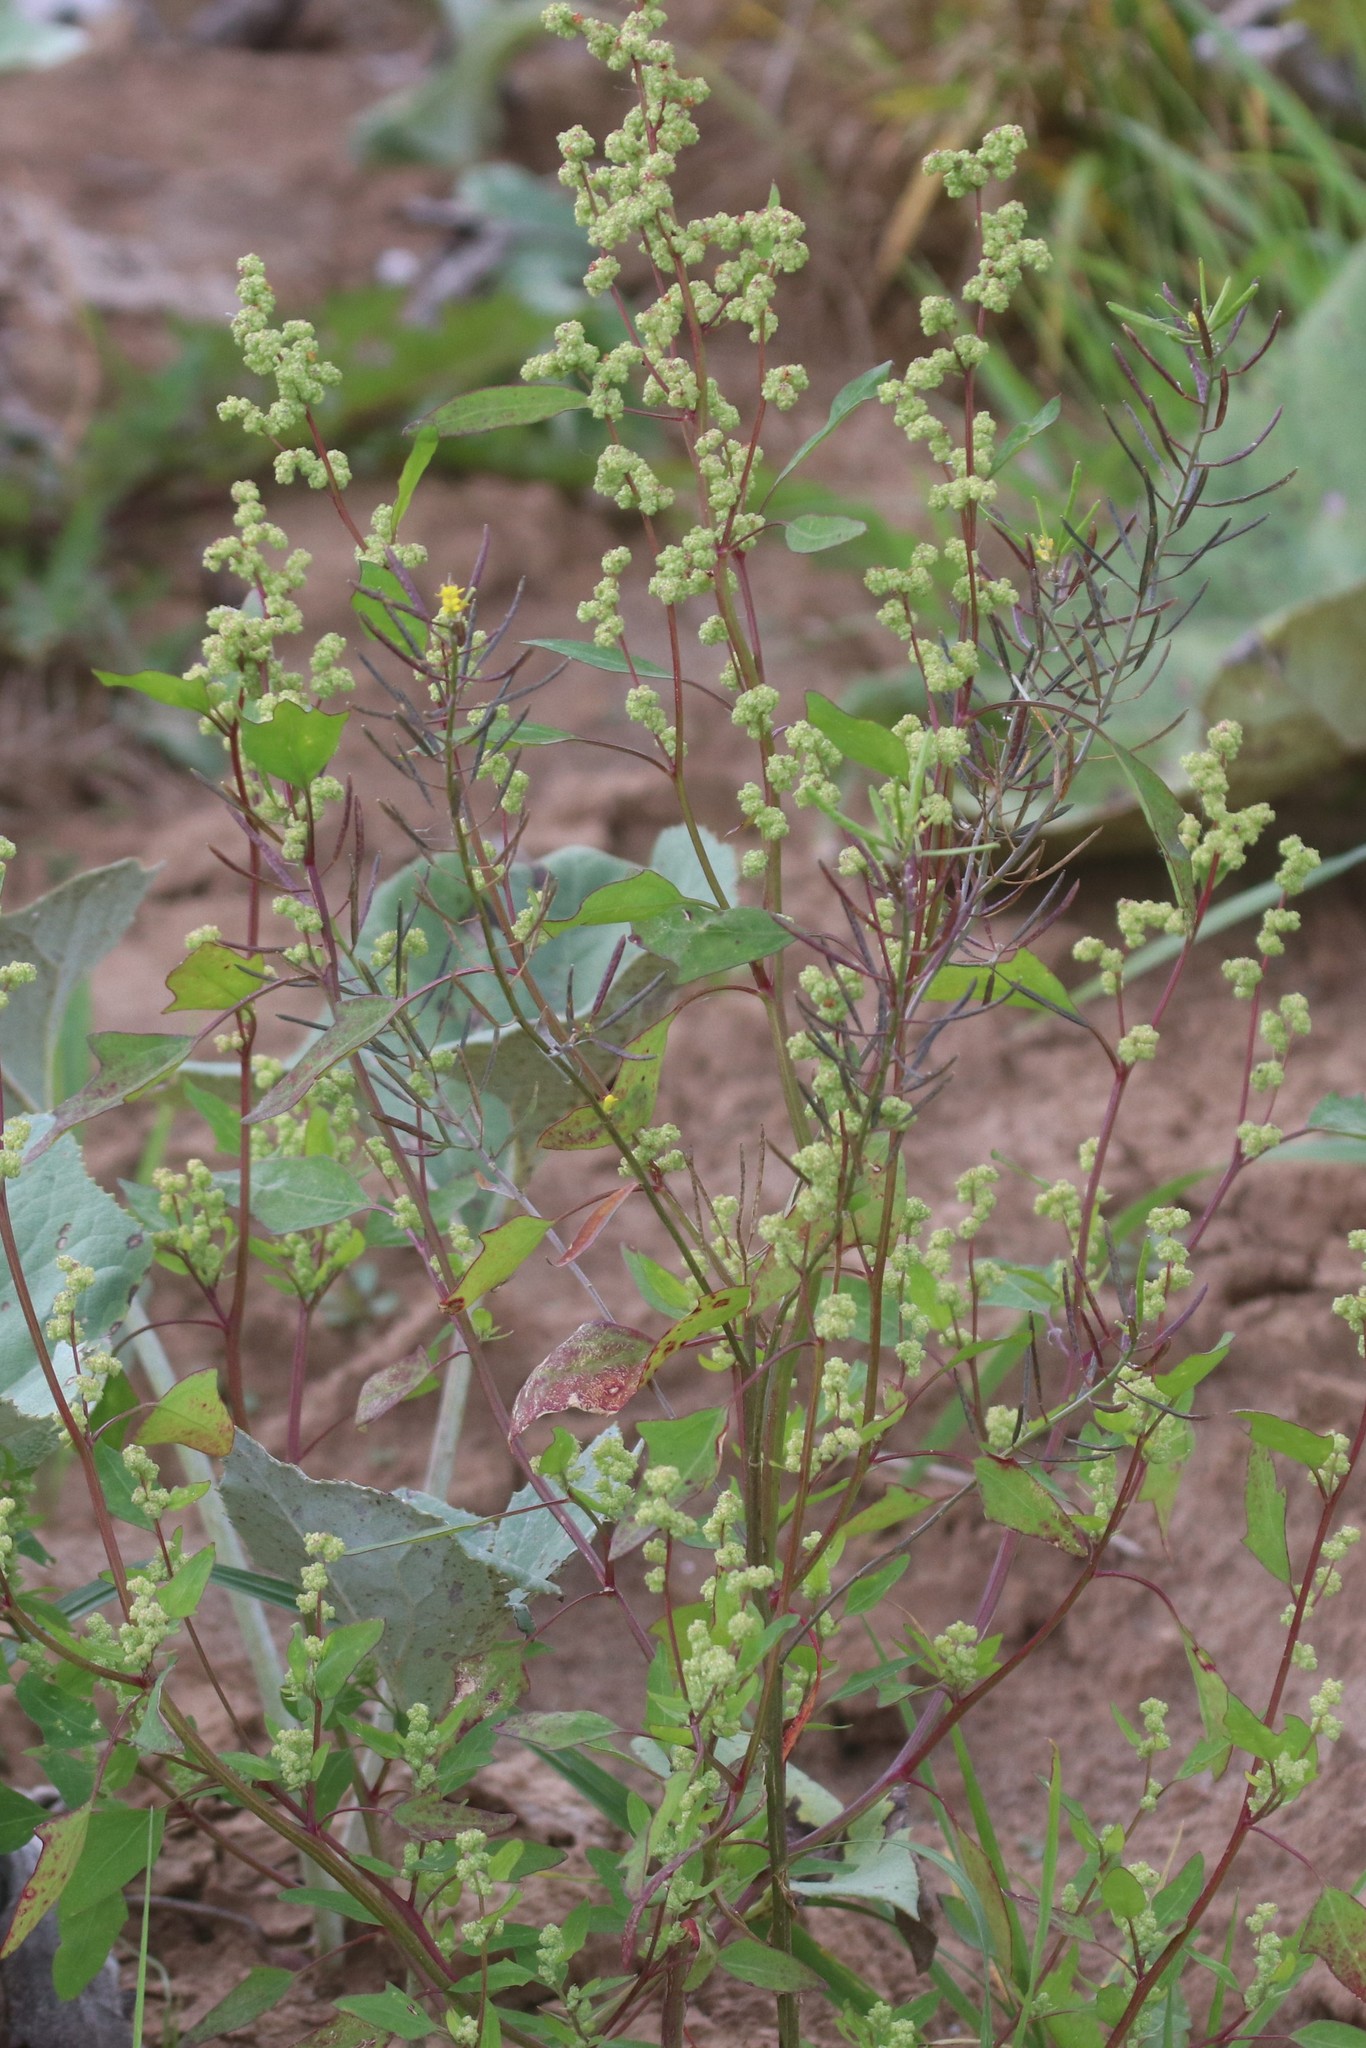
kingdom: Plantae
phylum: Tracheophyta
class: Magnoliopsida
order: Caryophyllales
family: Amaranthaceae
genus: Chenopodium
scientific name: Chenopodium album
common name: Fat-hen
